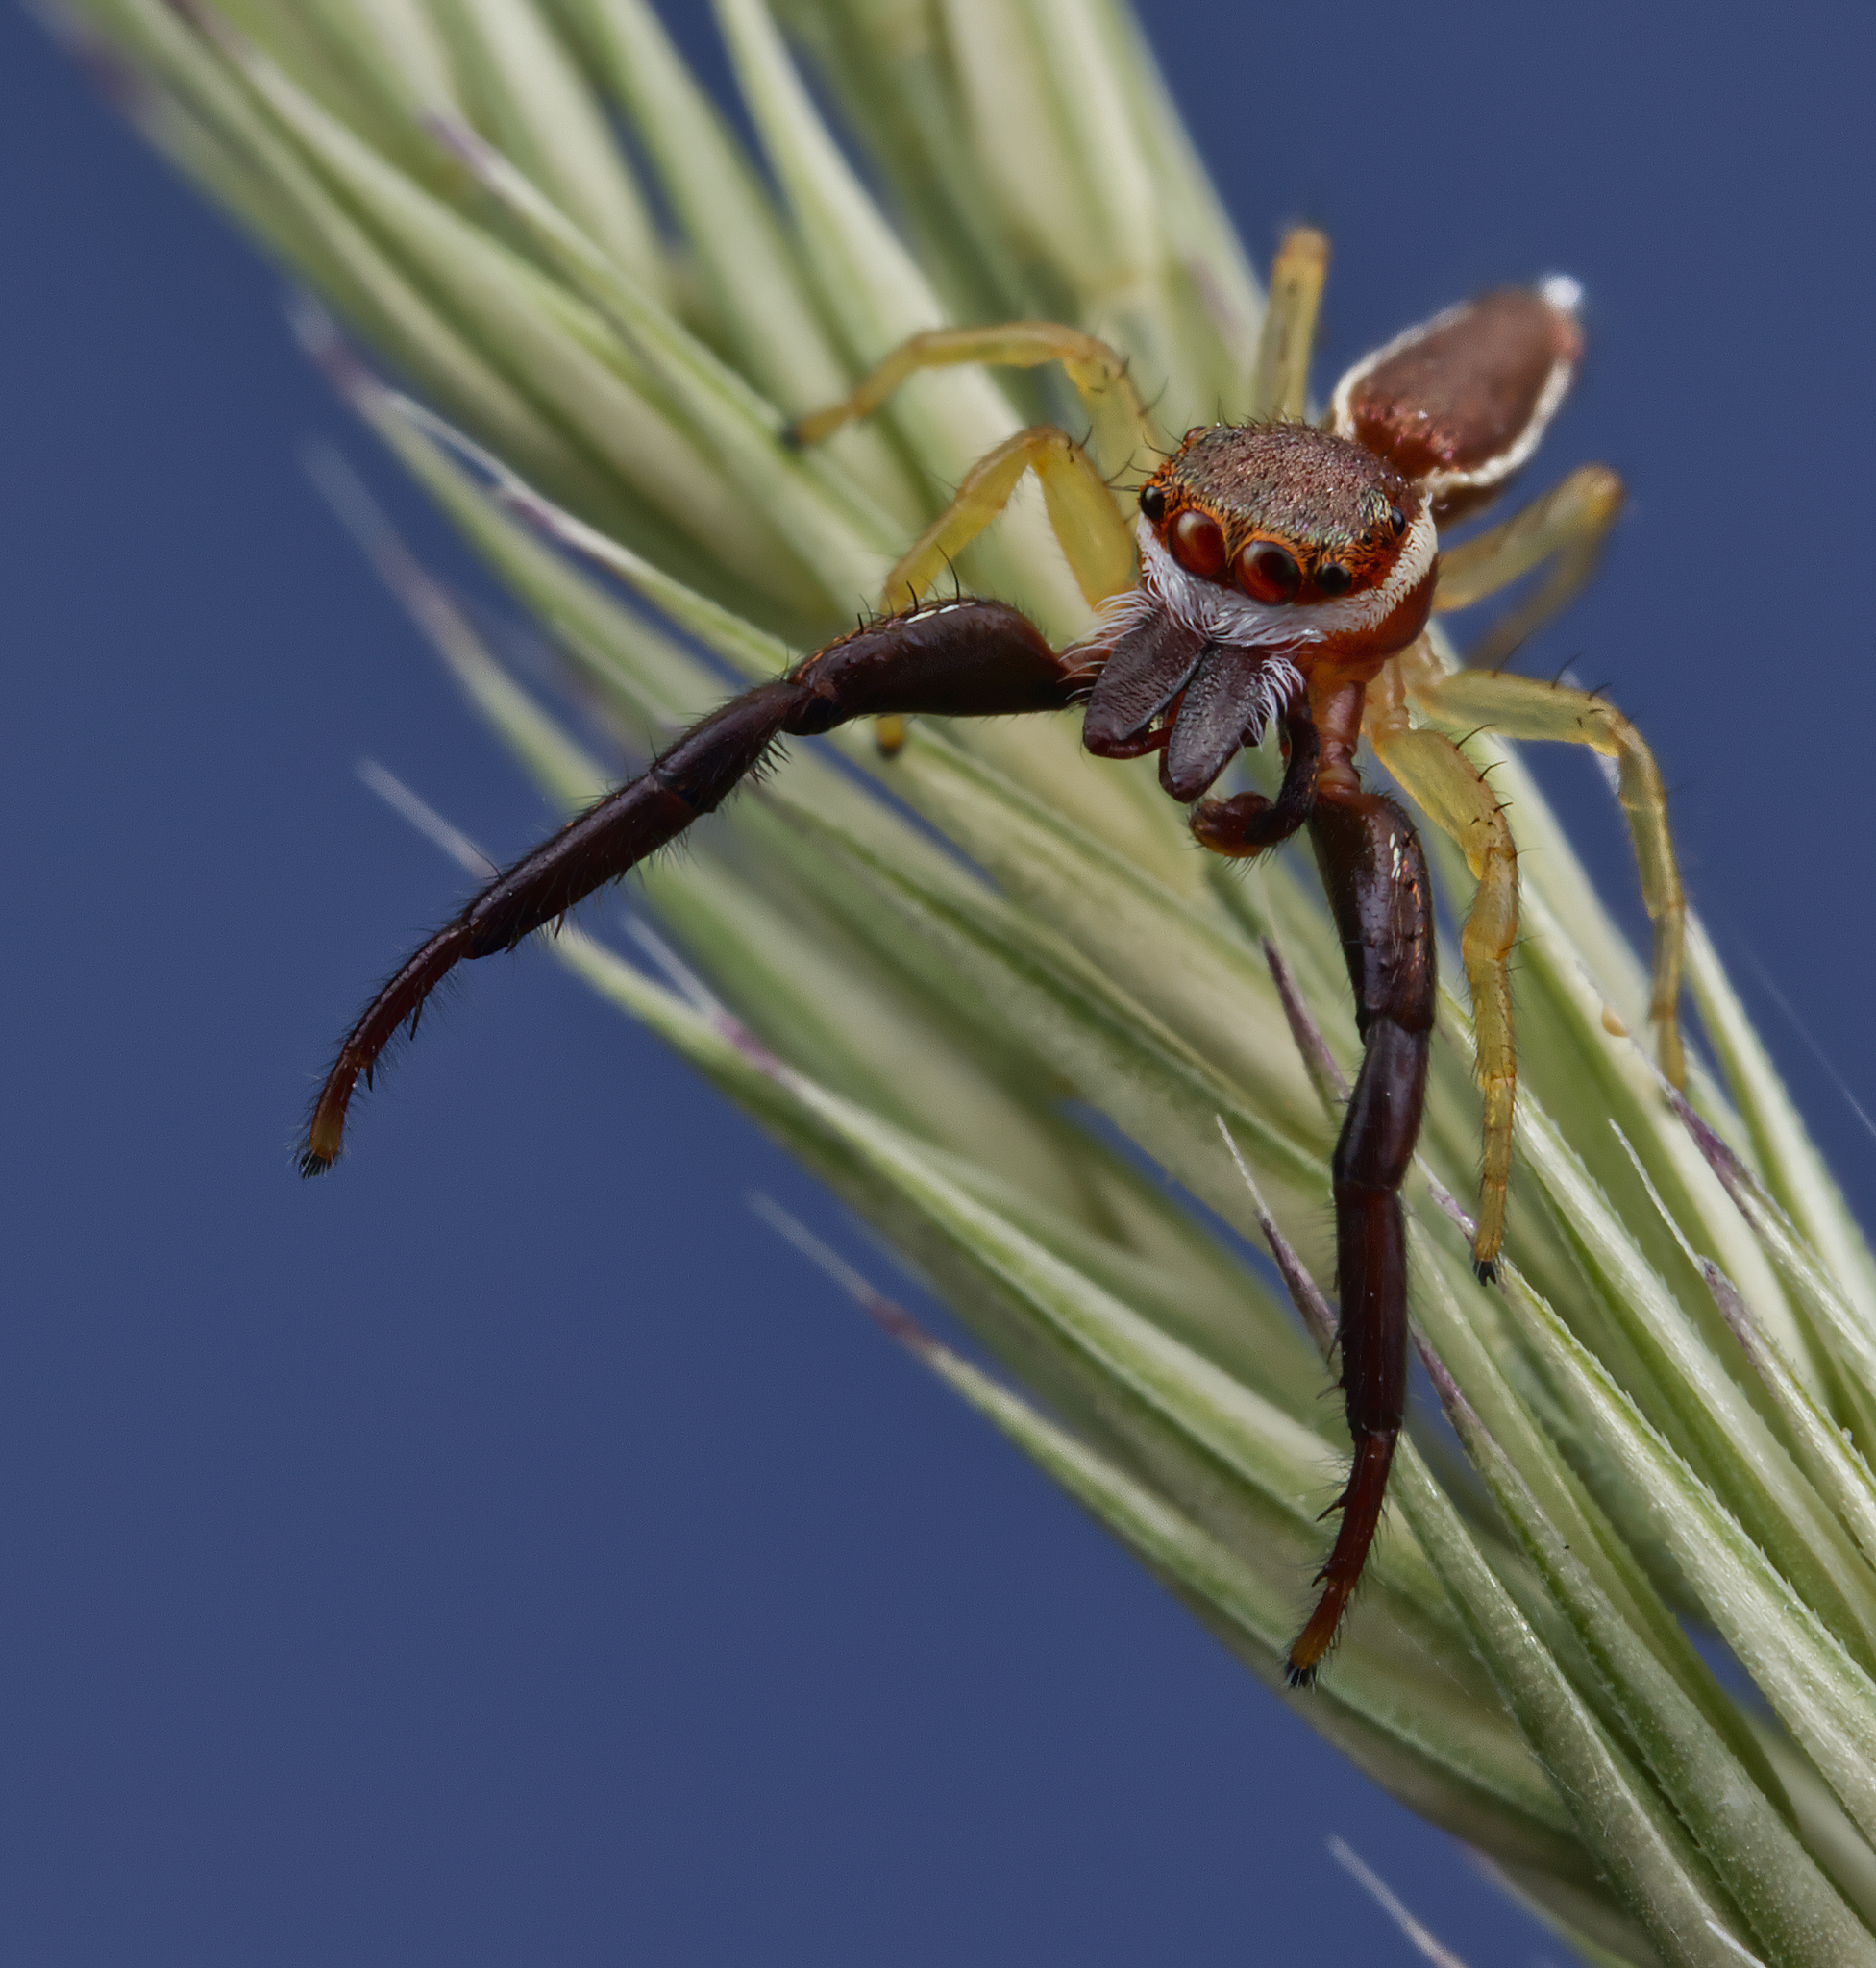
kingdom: Animalia
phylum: Arthropoda
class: Arachnida
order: Araneae
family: Salticidae
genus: Hentzia
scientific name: Hentzia palmarum
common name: Common hentz jumping spider
